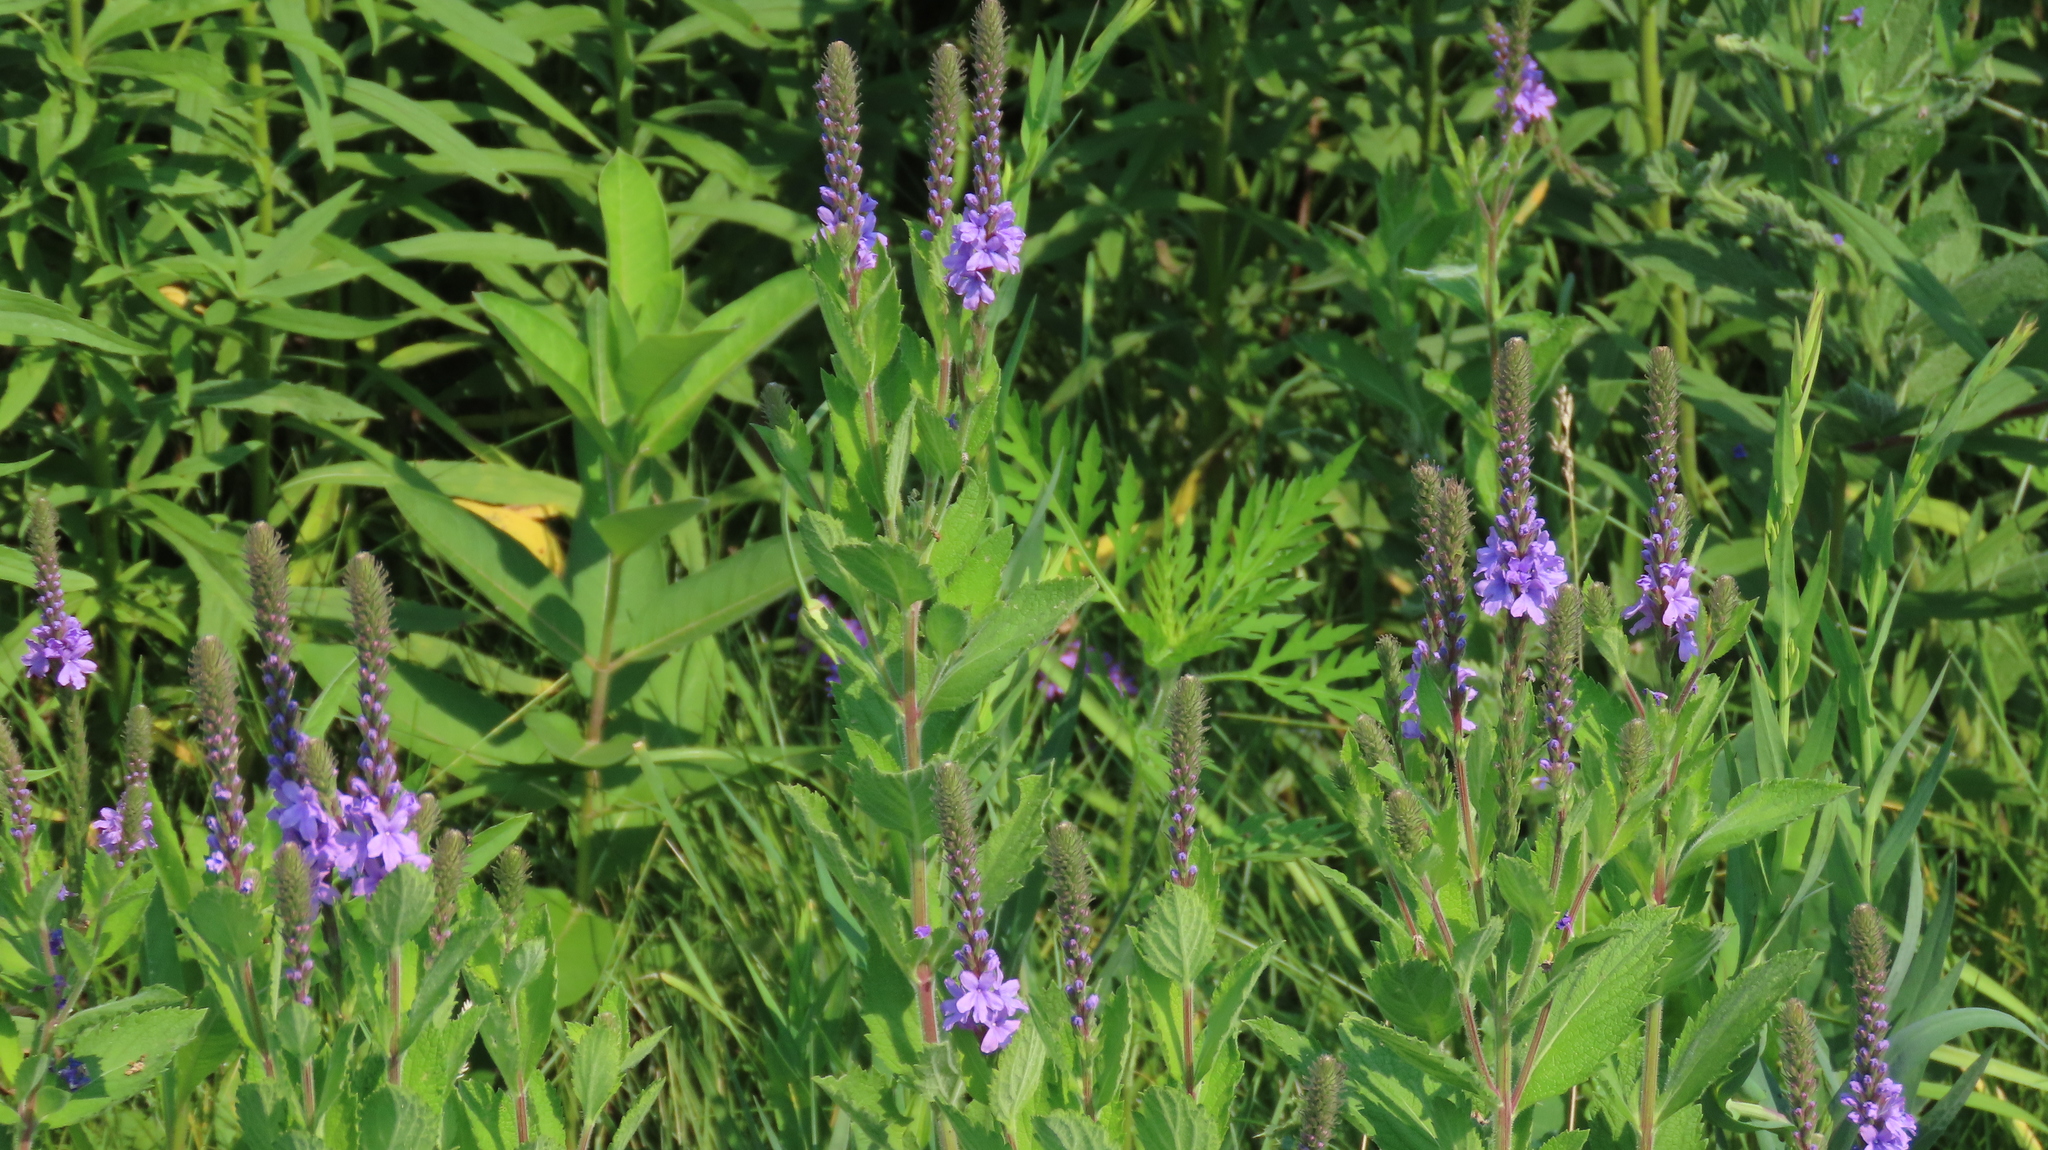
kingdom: Plantae
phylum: Tracheophyta
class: Magnoliopsida
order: Lamiales
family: Verbenaceae
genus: Verbena
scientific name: Verbena stricta
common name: Hoary vervain
